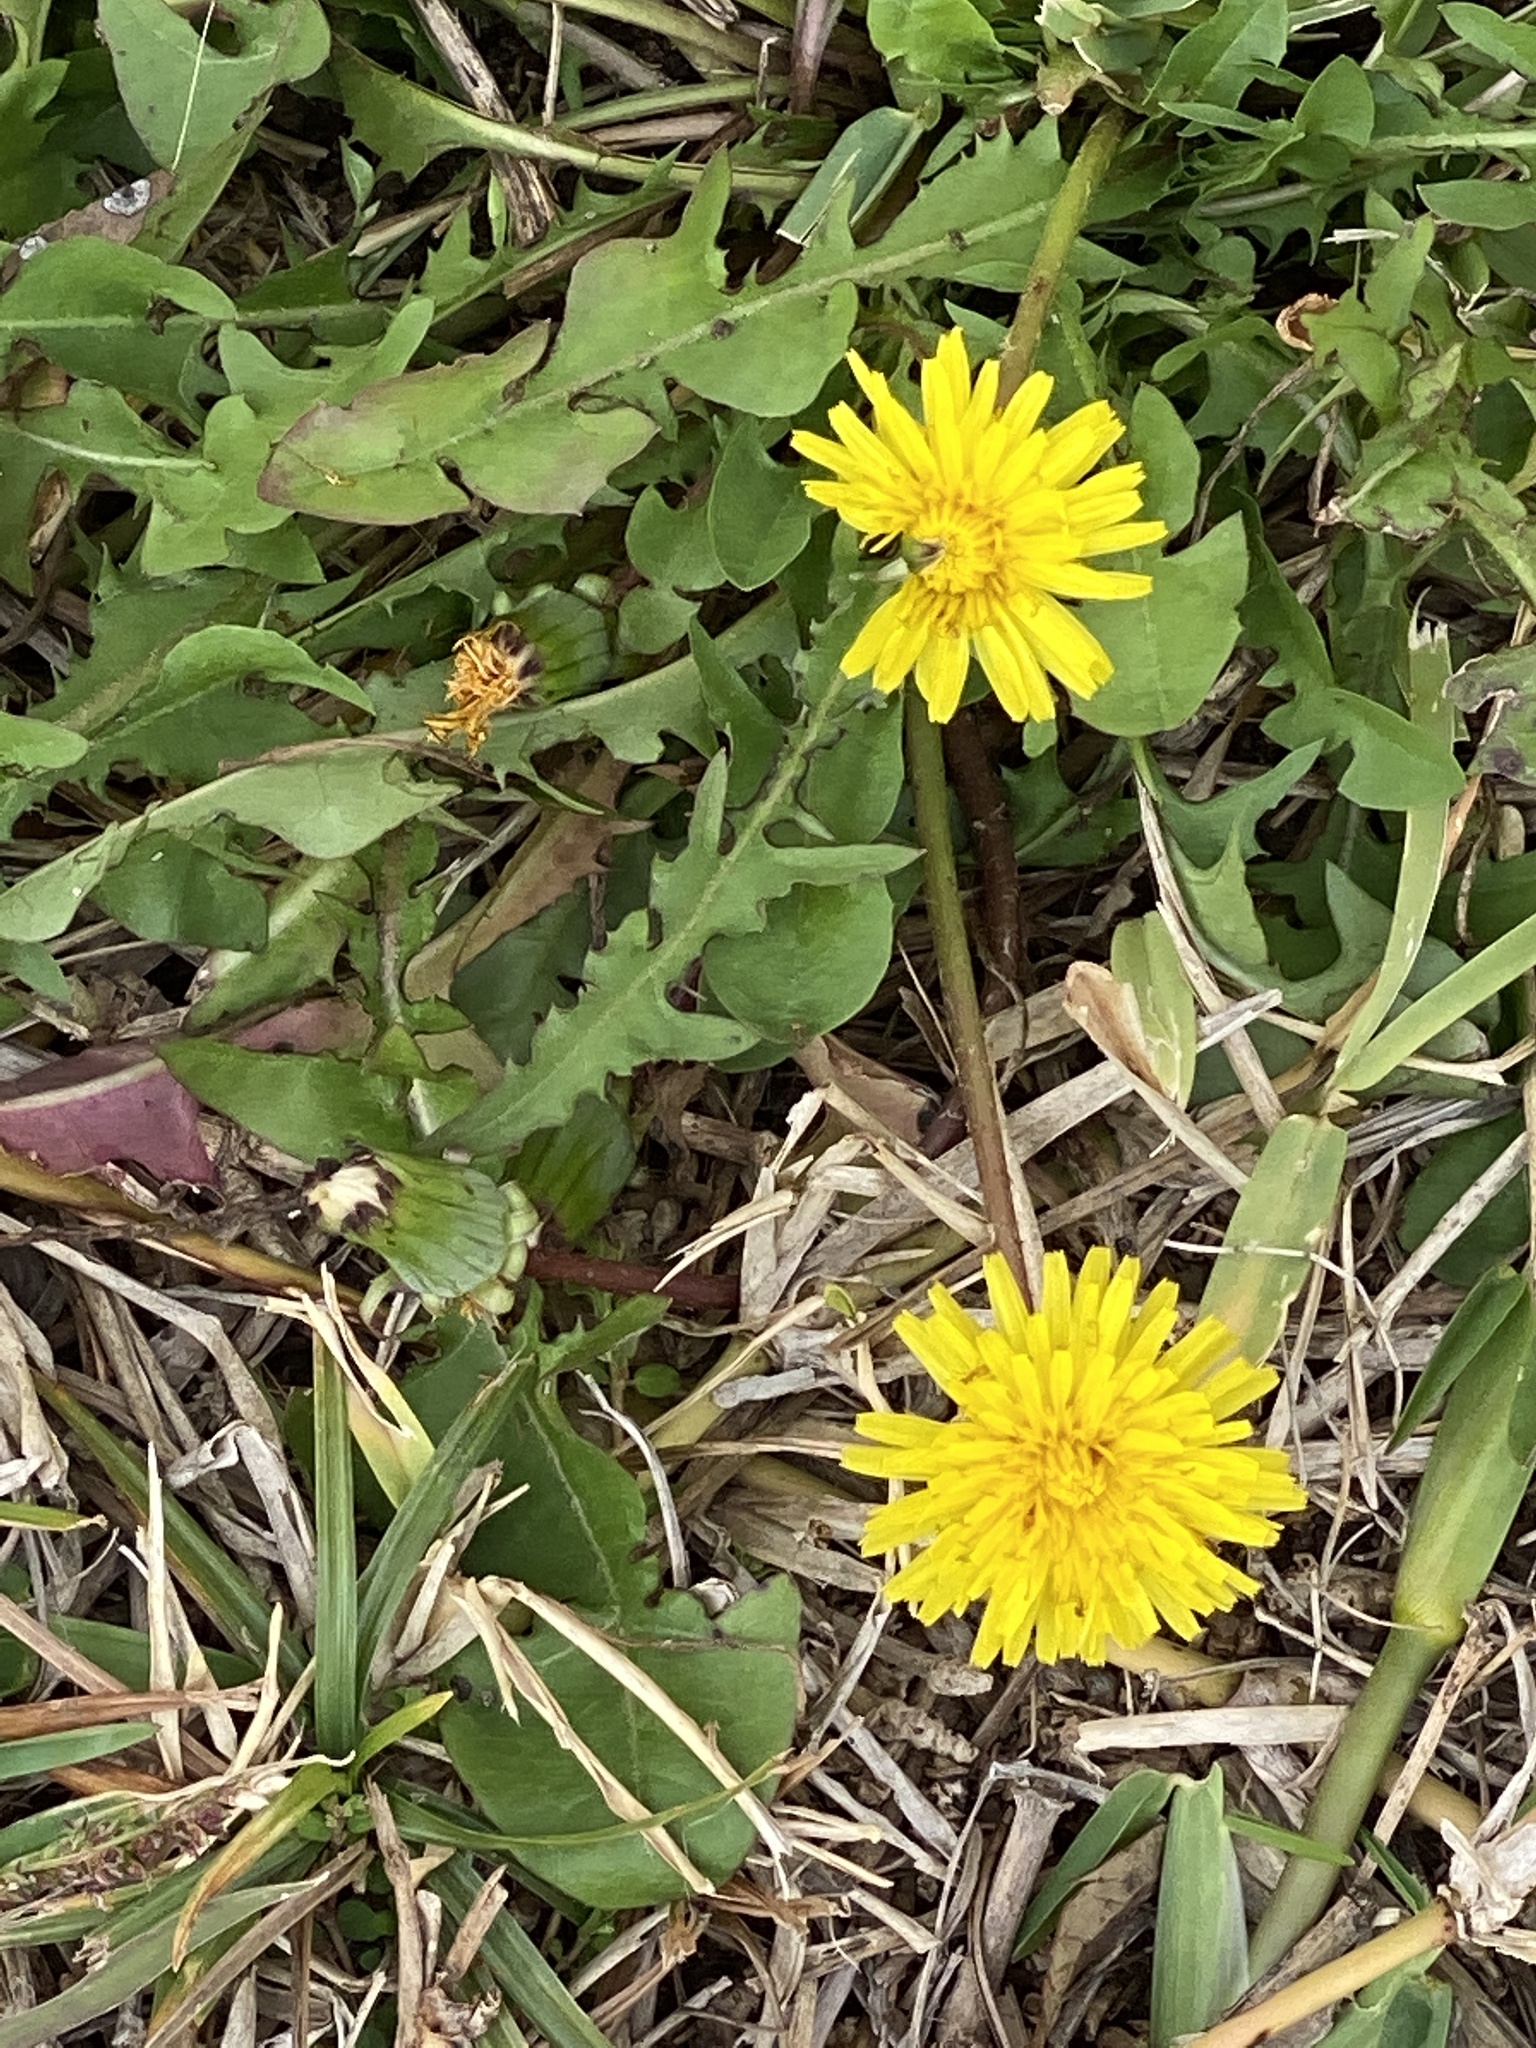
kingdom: Plantae
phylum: Tracheophyta
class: Magnoliopsida
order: Asterales
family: Asteraceae
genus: Taraxacum
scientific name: Taraxacum officinale
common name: Common dandelion
